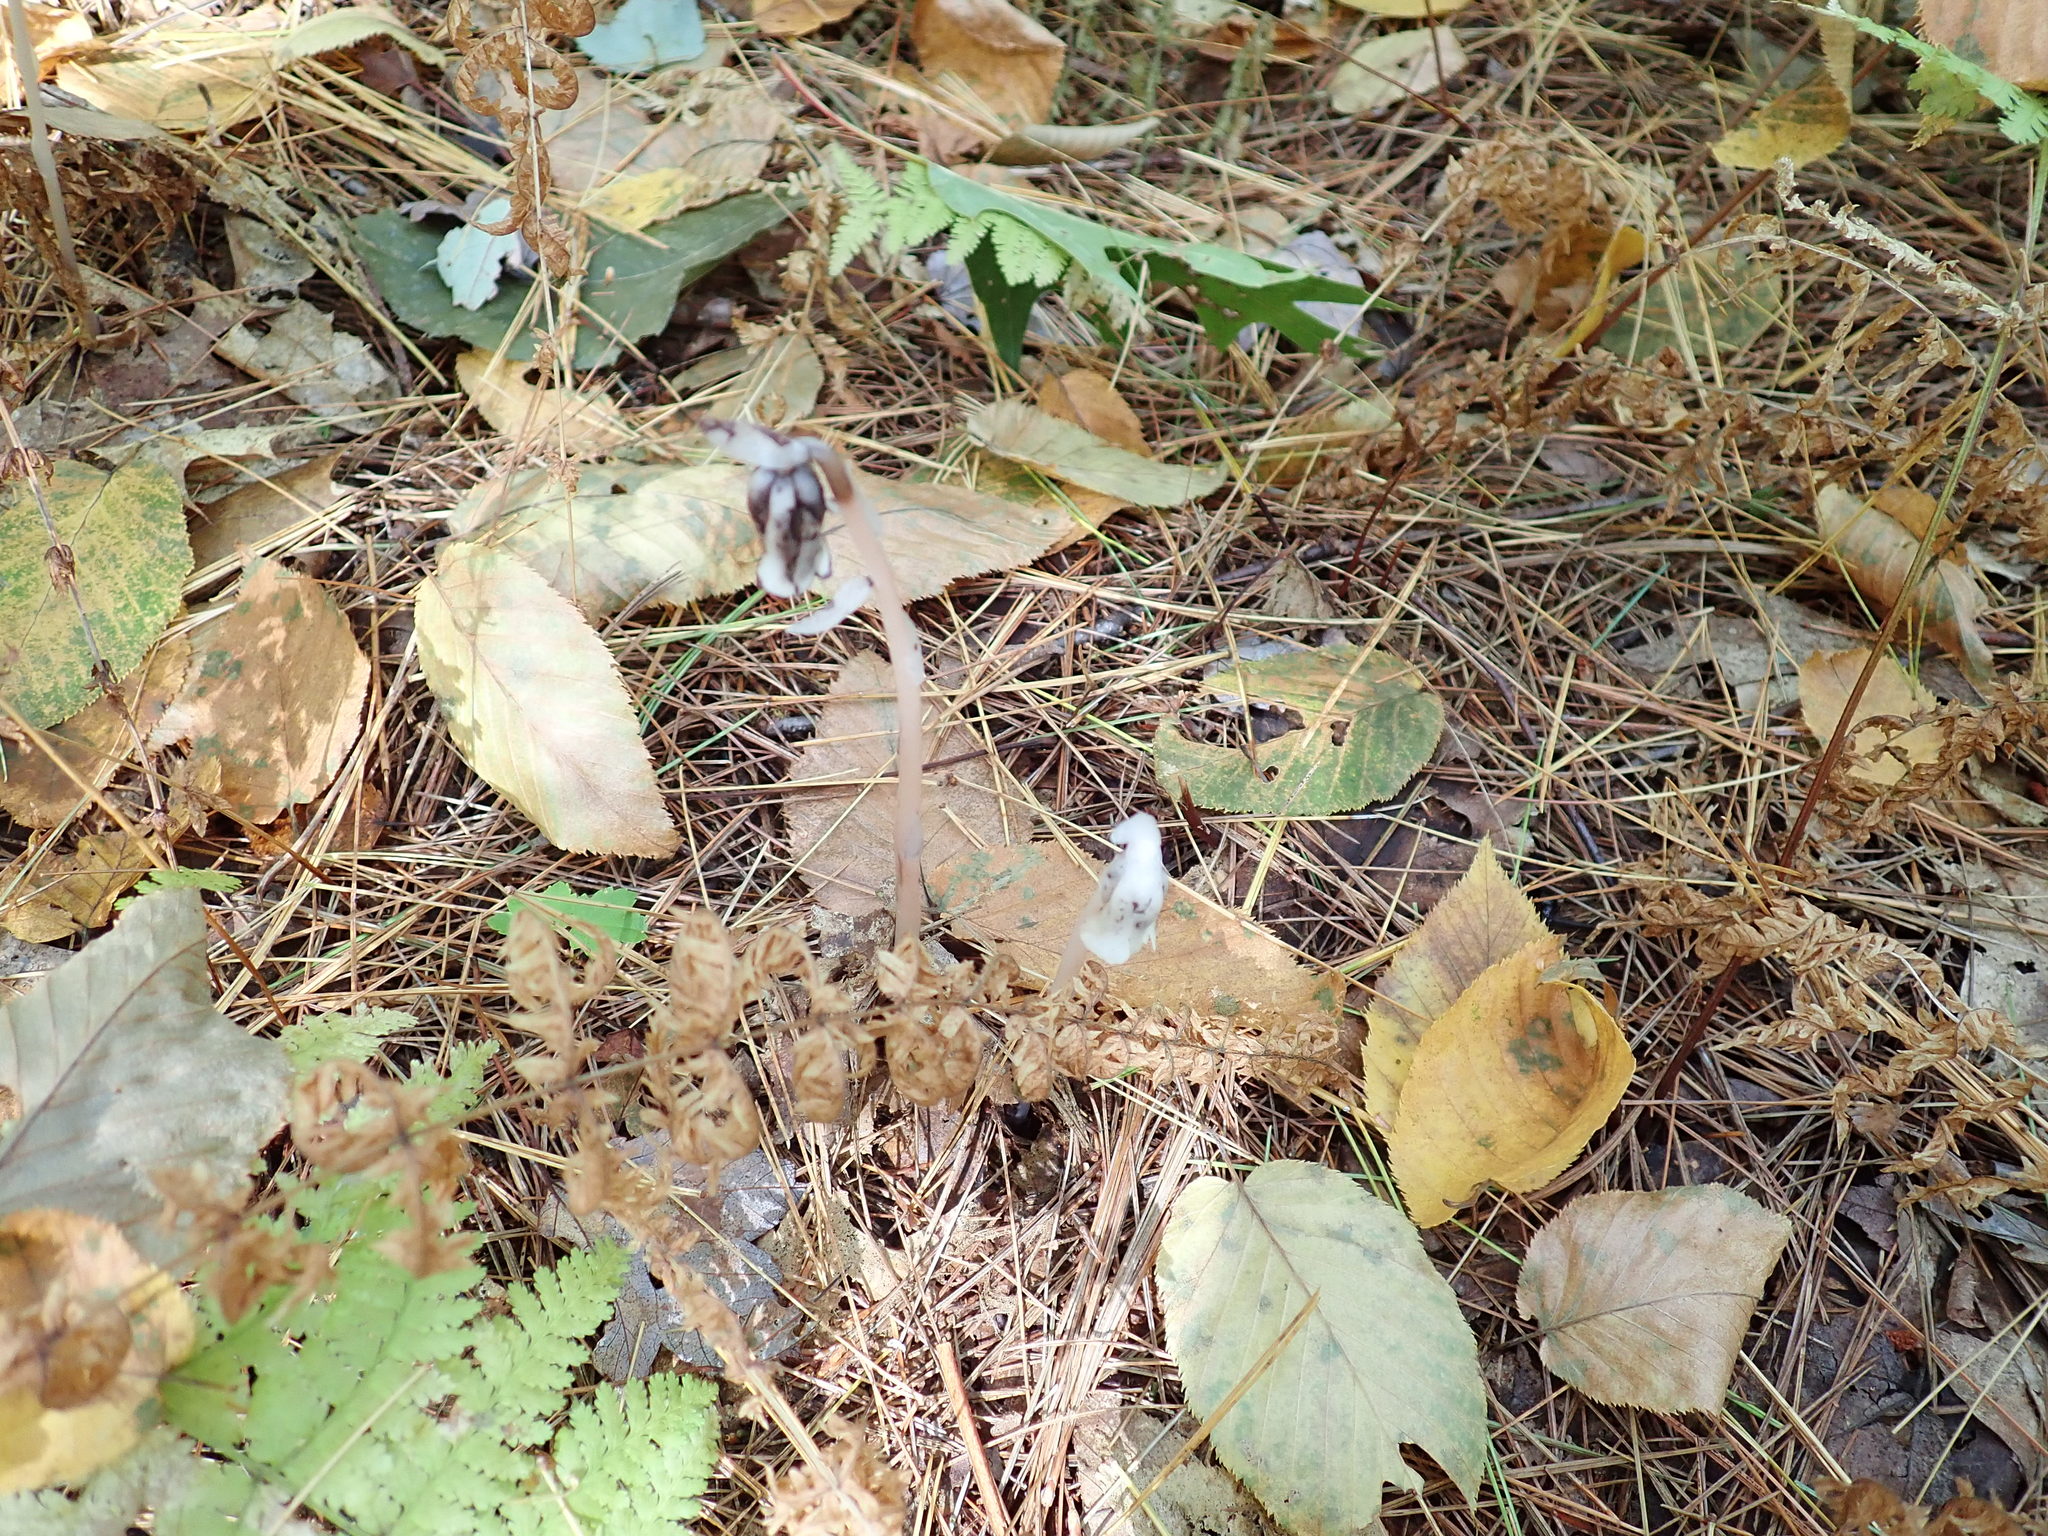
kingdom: Plantae
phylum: Tracheophyta
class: Magnoliopsida
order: Ericales
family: Ericaceae
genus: Monotropa
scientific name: Monotropa uniflora
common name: Convulsion root
